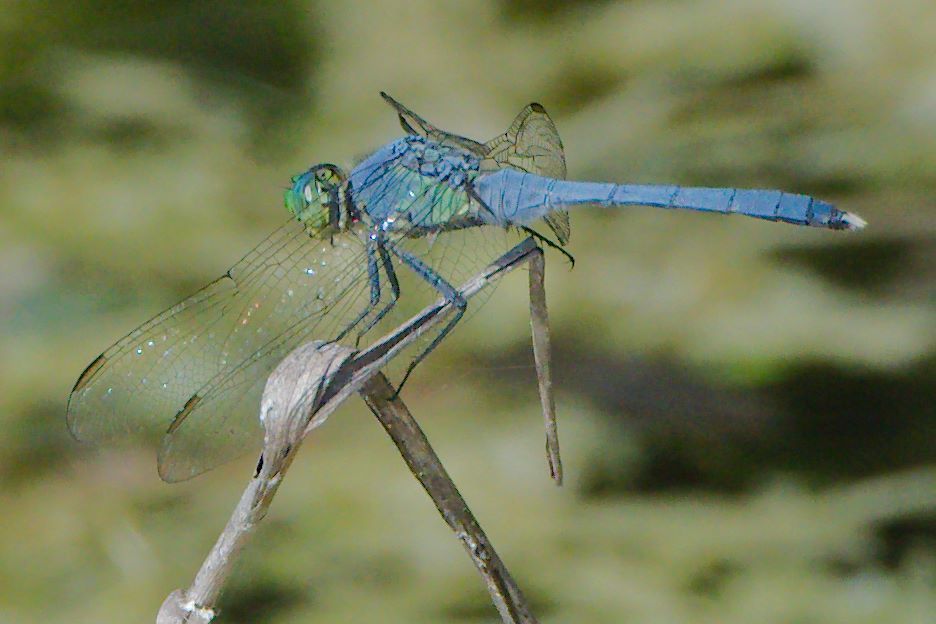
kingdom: Animalia
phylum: Arthropoda
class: Insecta
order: Odonata
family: Libellulidae
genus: Erythemis
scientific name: Erythemis simplicicollis
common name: Eastern pondhawk
